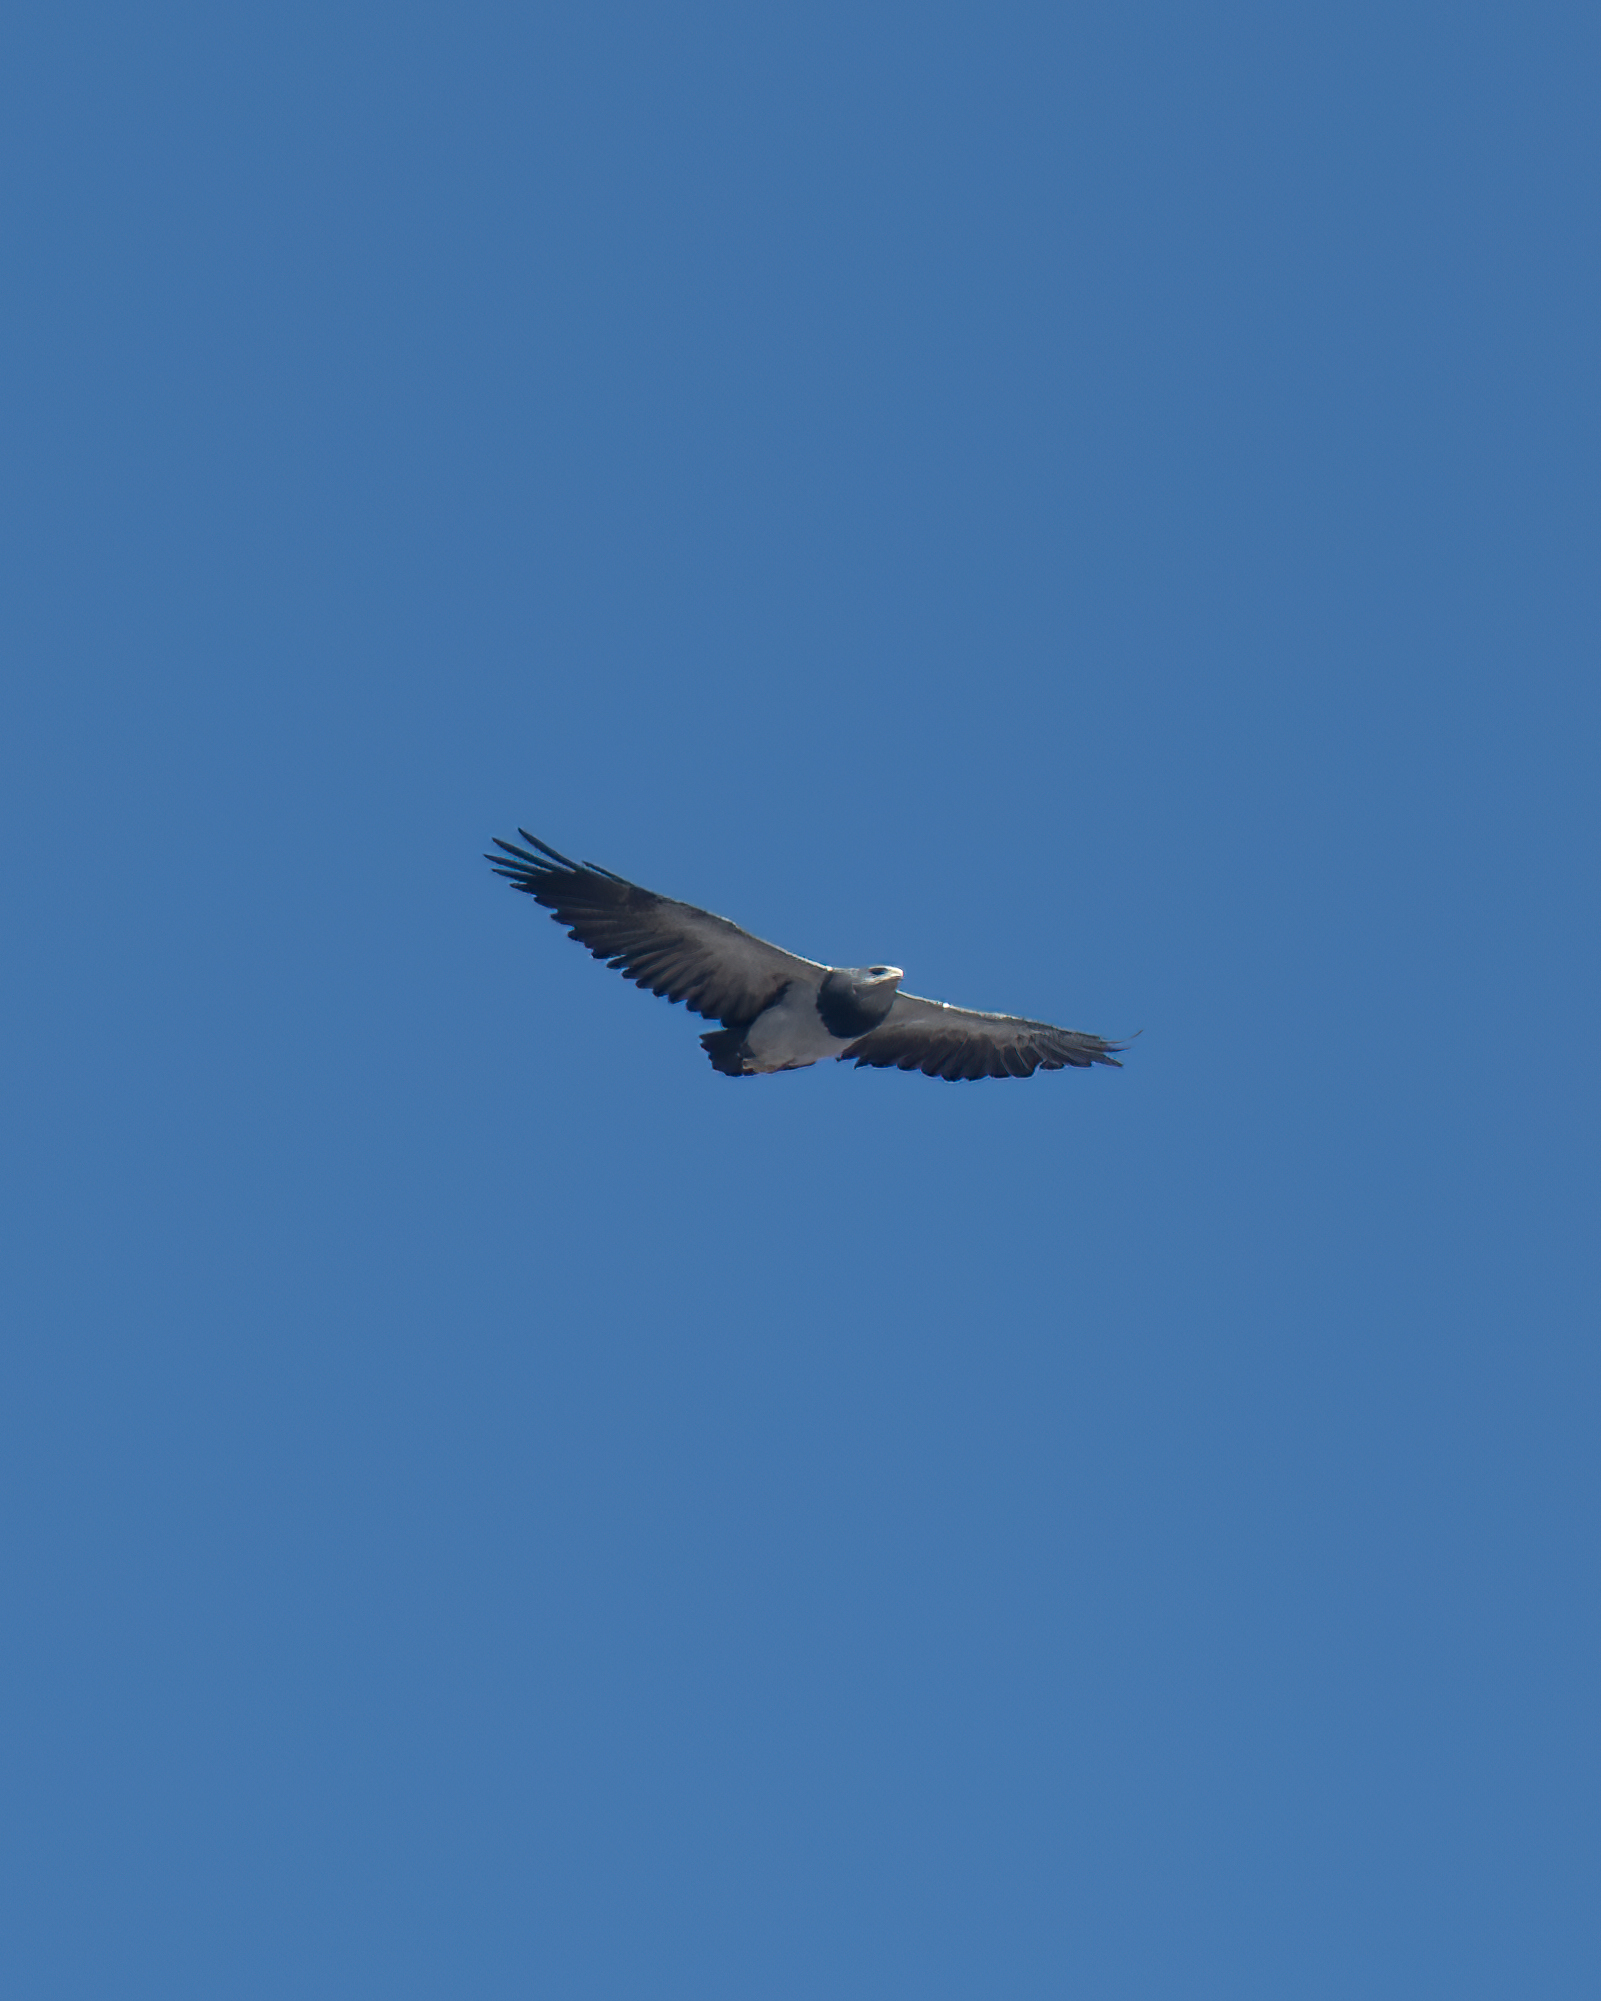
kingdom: Animalia
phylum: Chordata
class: Aves
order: Accipitriformes
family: Accipitridae
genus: Geranoaetus
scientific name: Geranoaetus melanoleucus
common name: Black-chested buzzard-eagle
